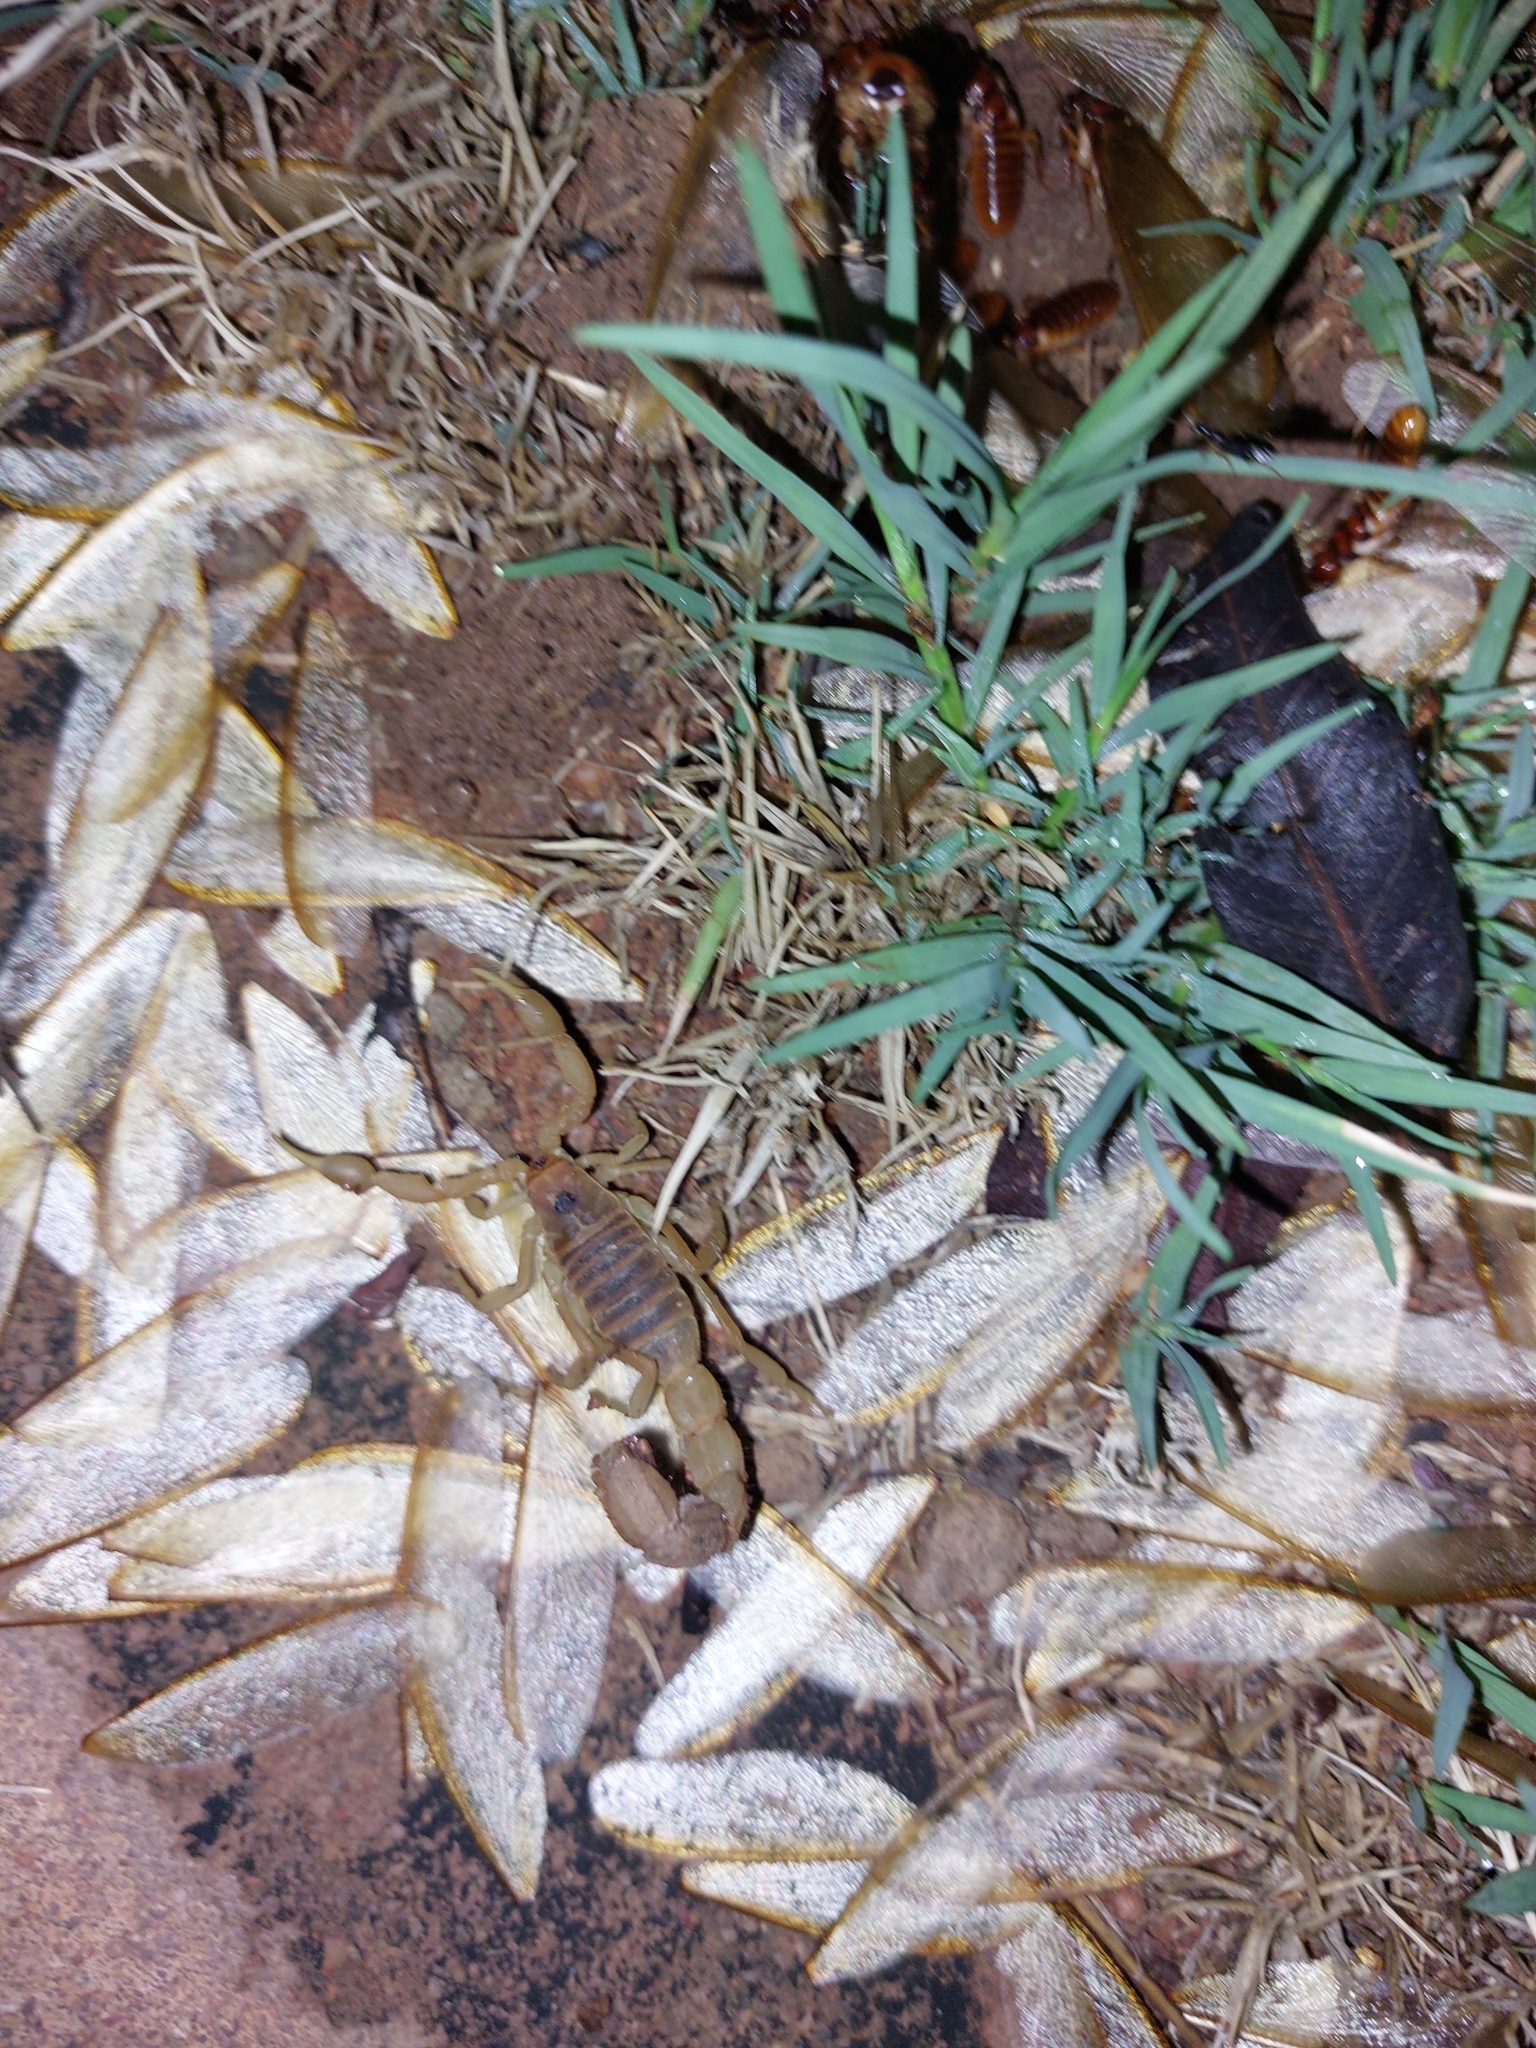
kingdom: Animalia
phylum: Arthropoda
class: Arachnida
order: Scorpiones
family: Buthidae
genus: Parabuthus
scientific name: Parabuthus mossambicensis
